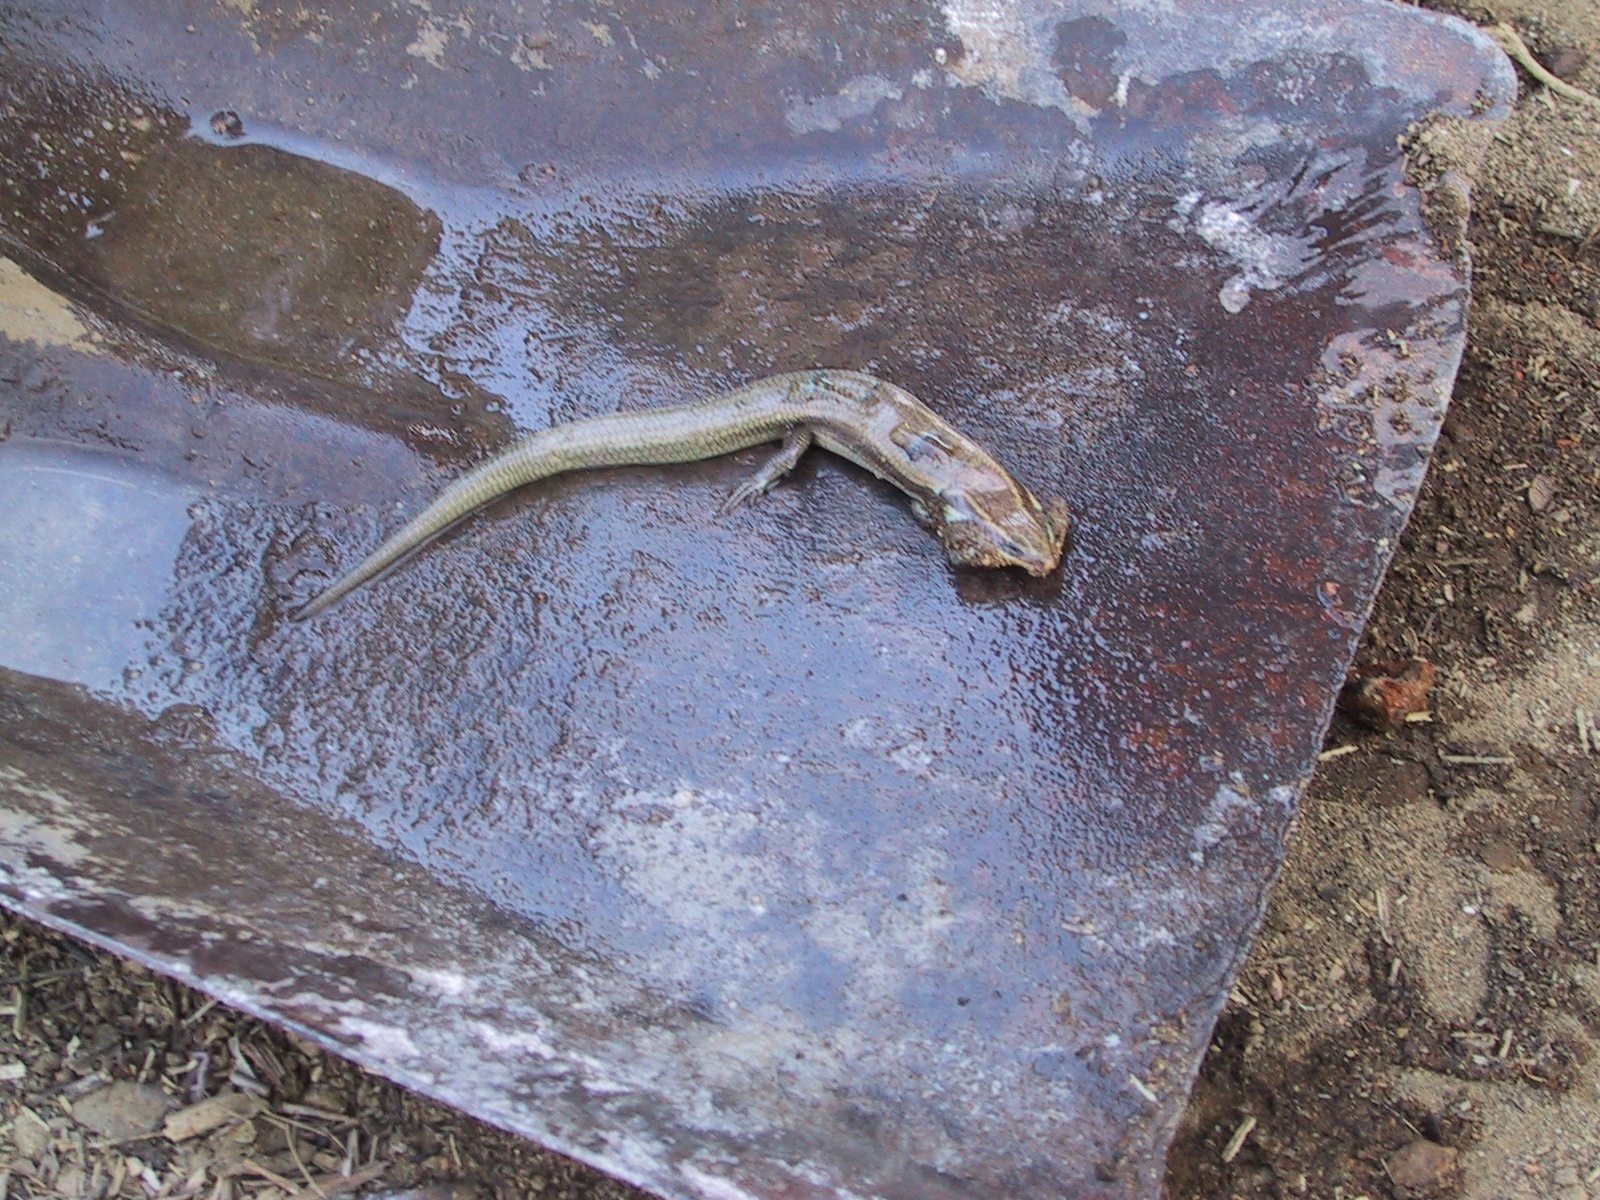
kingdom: Animalia
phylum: Chordata
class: Squamata
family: Scincidae
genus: Plestiodon
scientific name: Plestiodon
